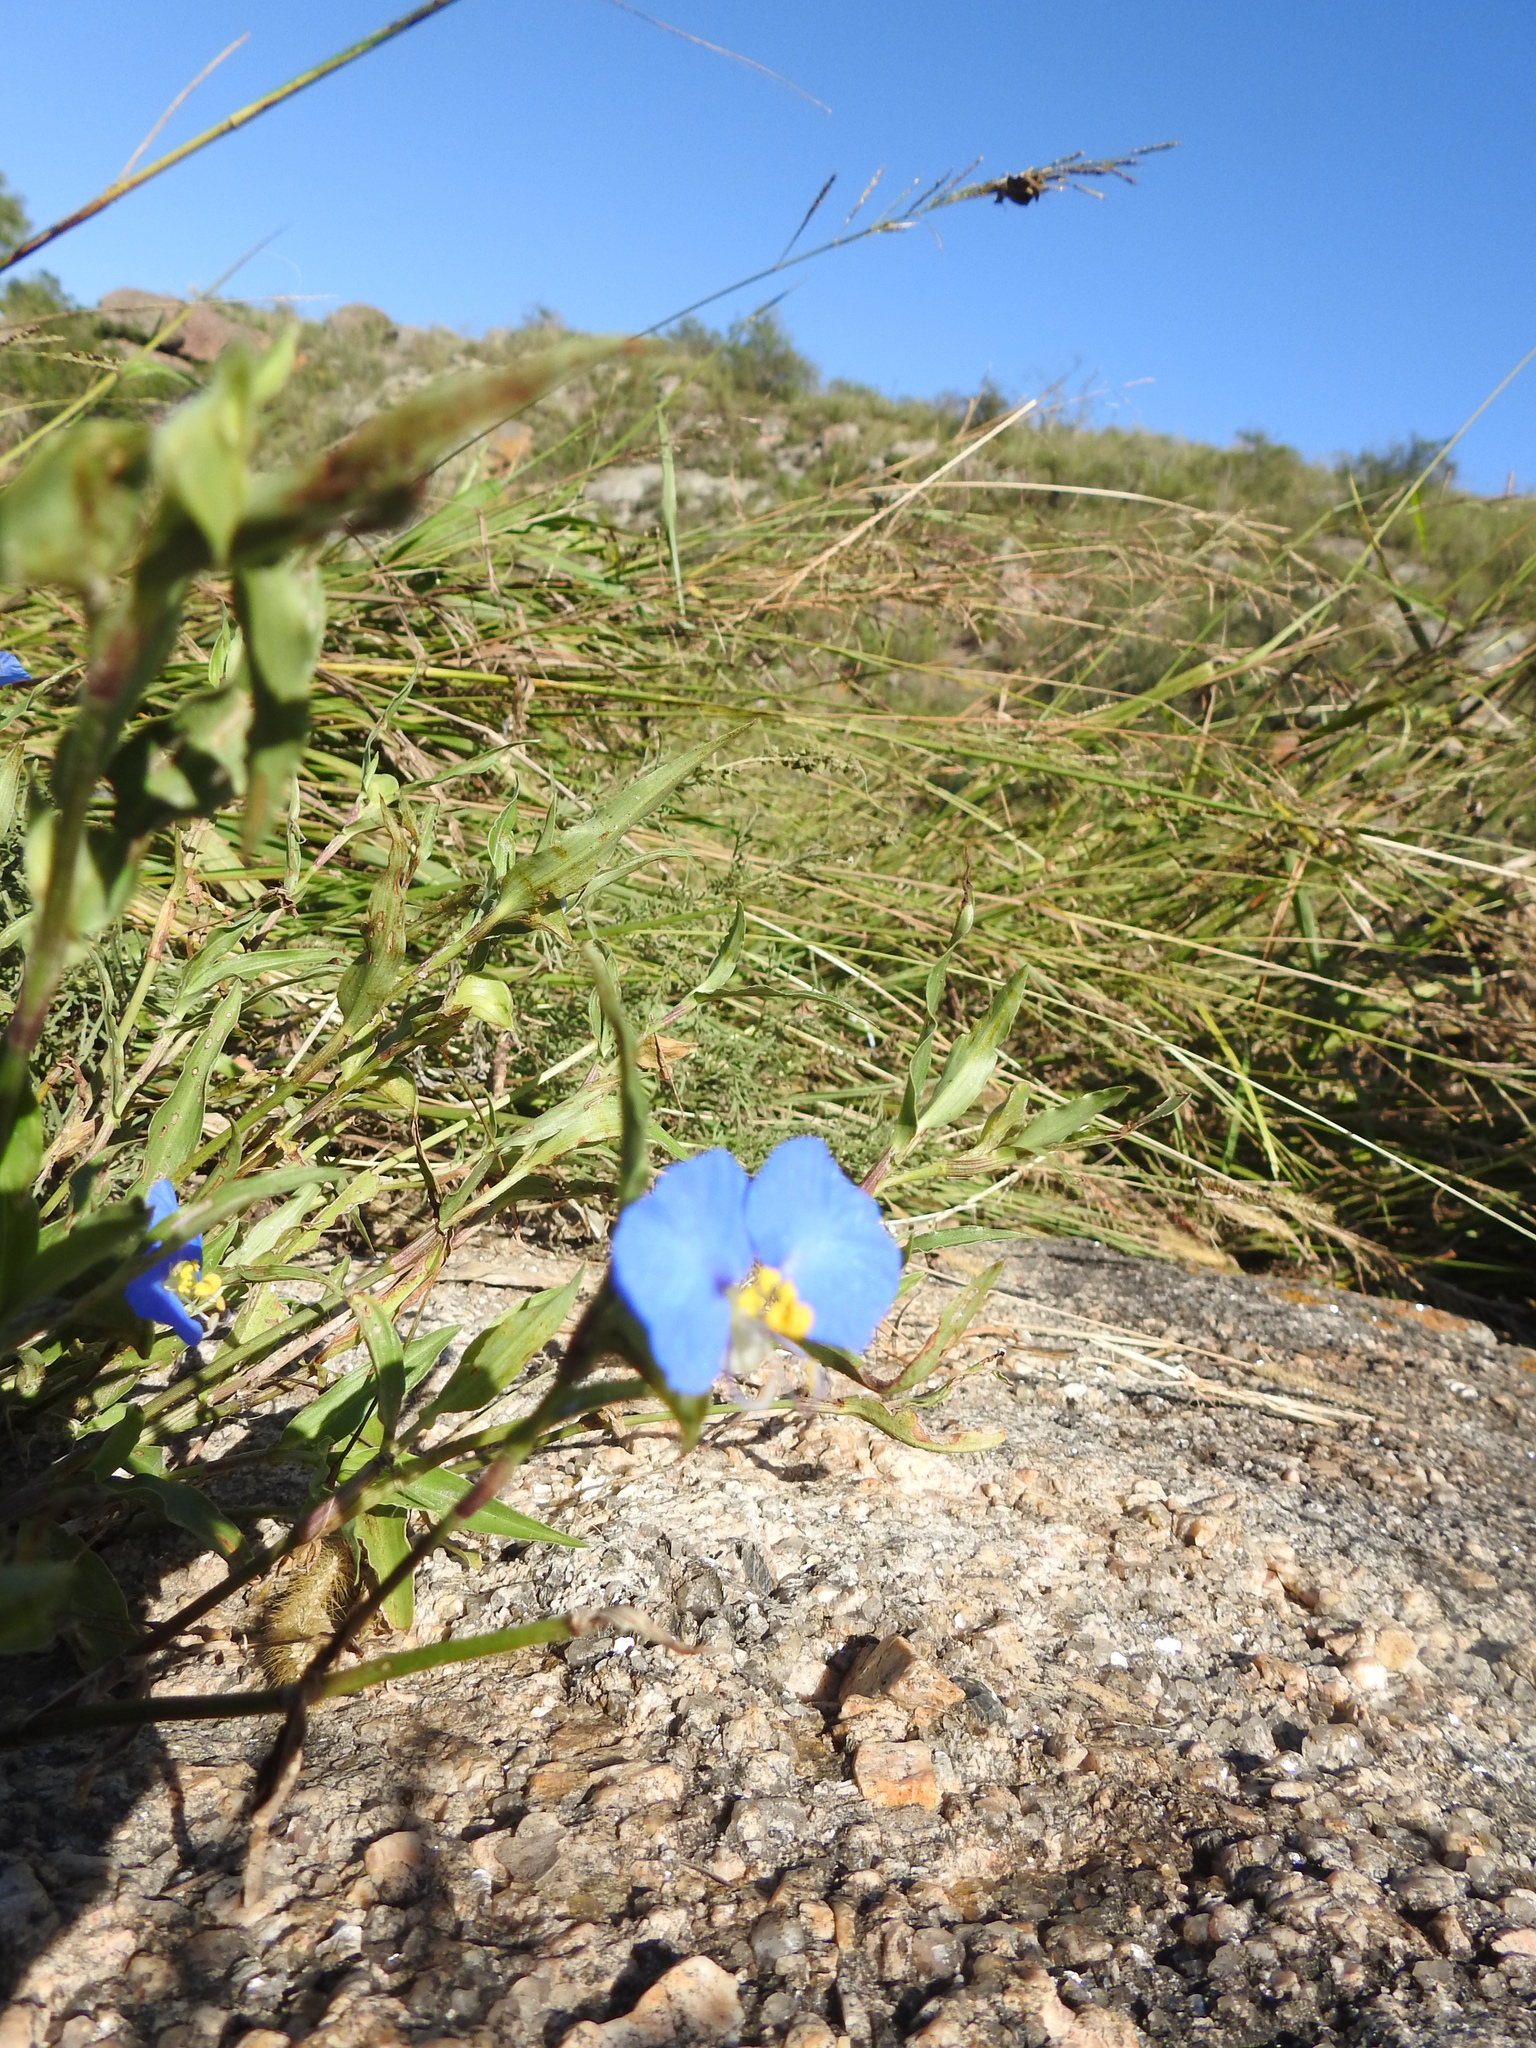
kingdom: Plantae
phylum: Tracheophyta
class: Liliopsida
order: Commelinales
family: Commelinaceae
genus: Commelina
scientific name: Commelina erecta
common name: Blousel blommetjie
